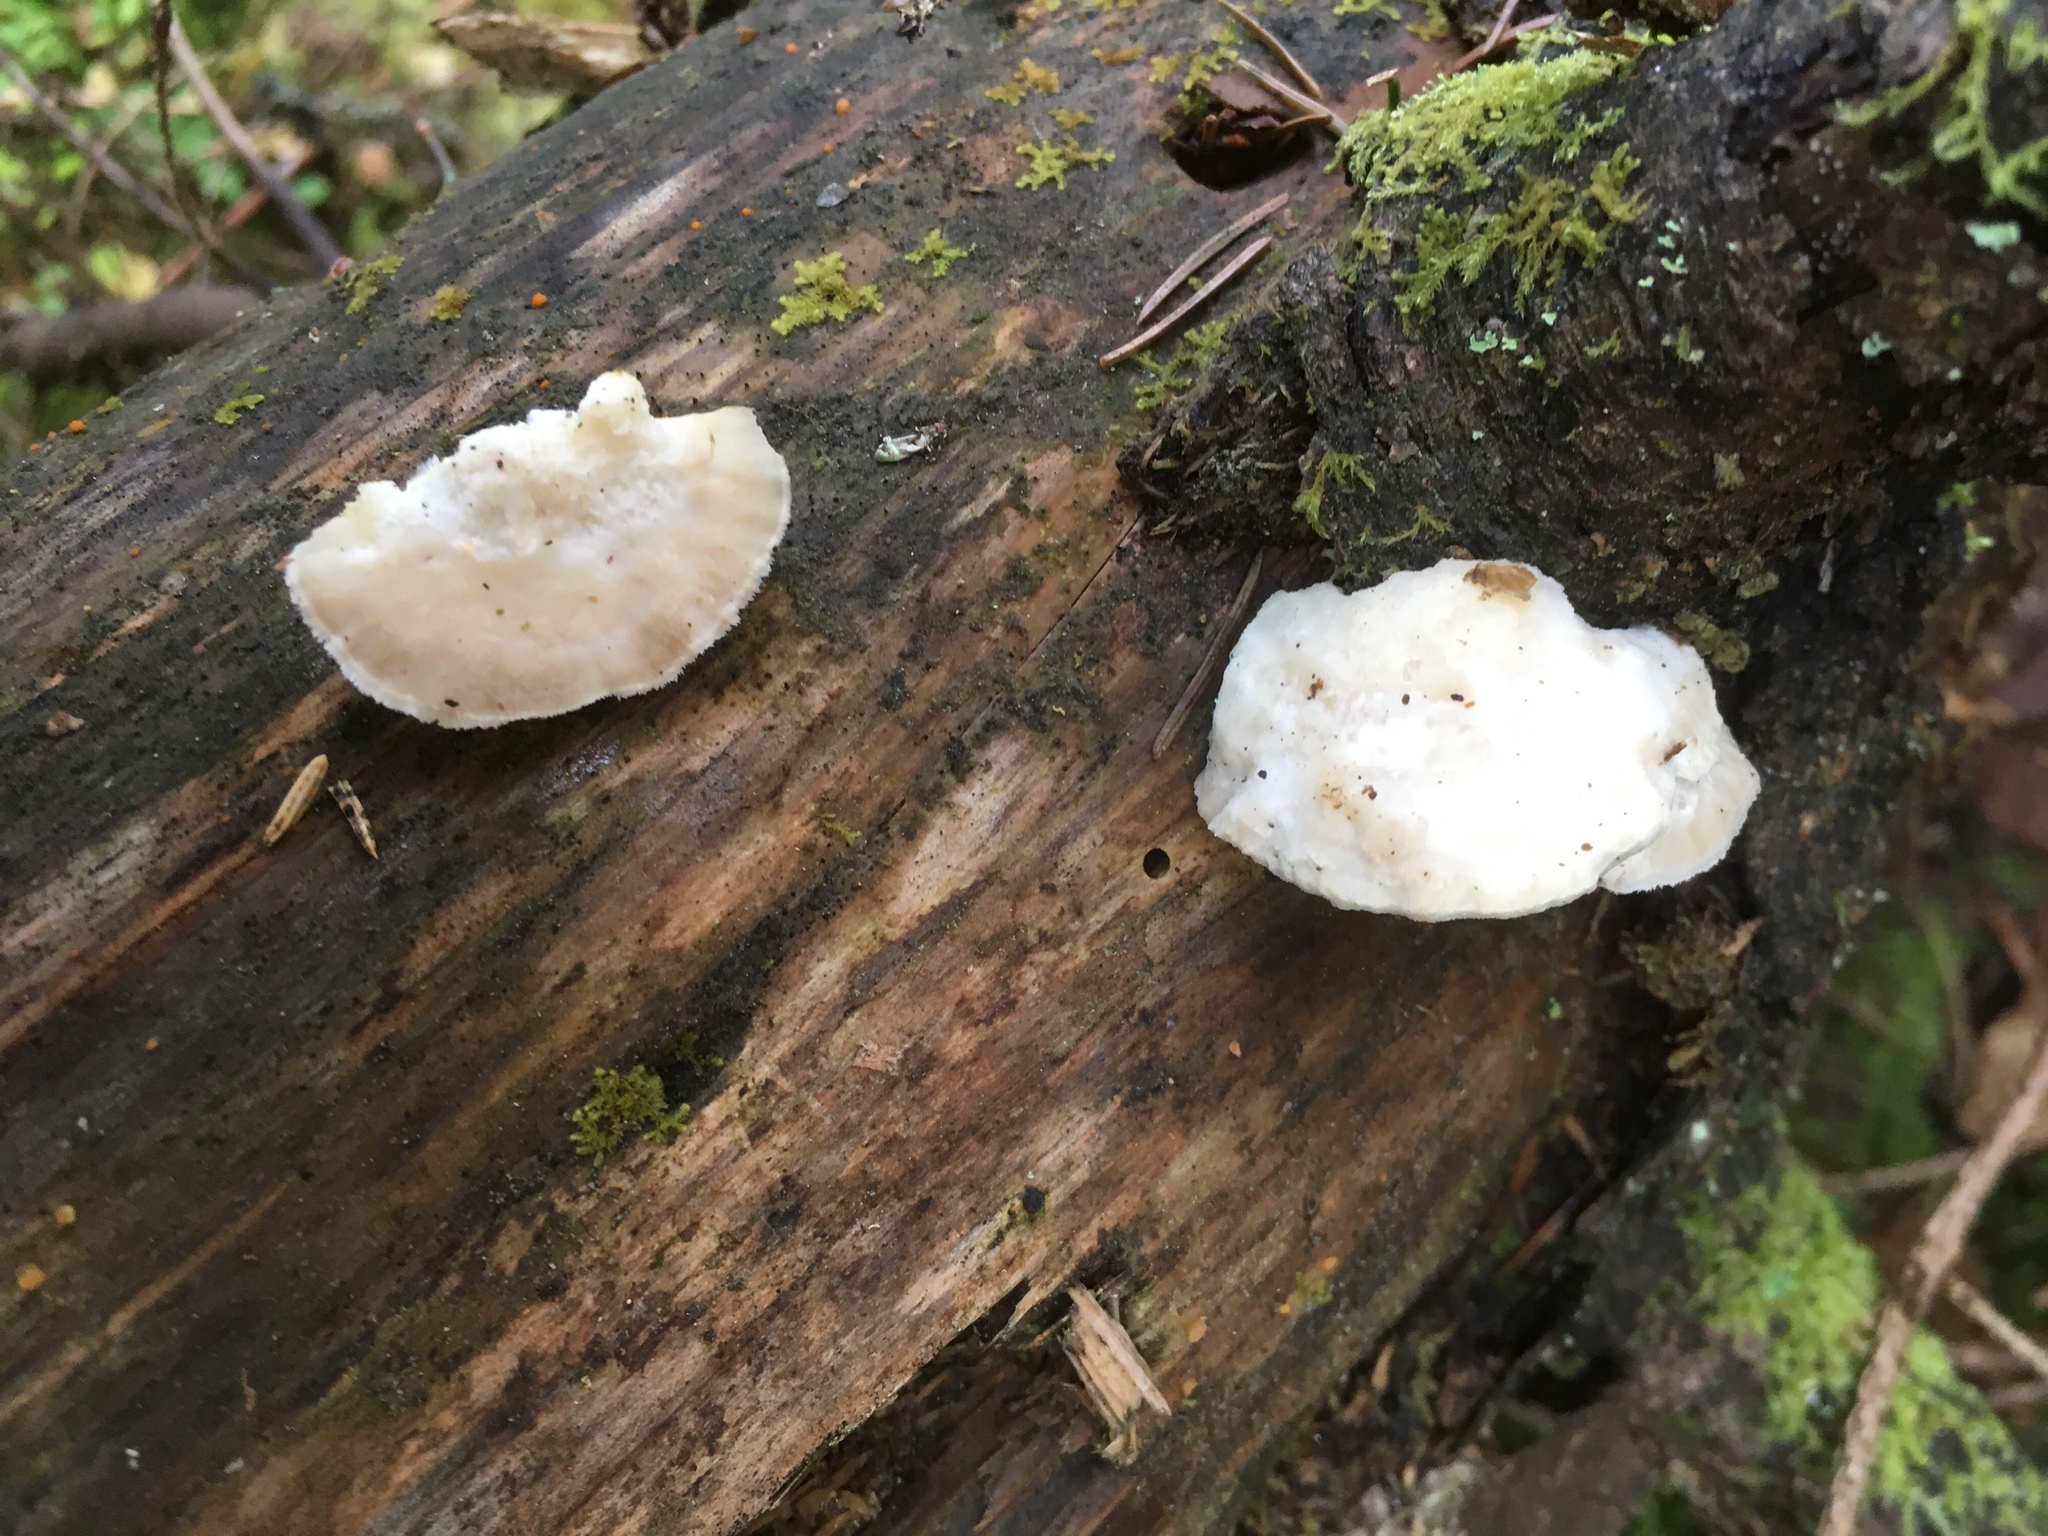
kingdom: Fungi
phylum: Basidiomycota
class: Agaricomycetes
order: Polyporales
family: Dacryobolaceae
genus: Postia
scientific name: Postia tephroleuca
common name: Greyling bracket
